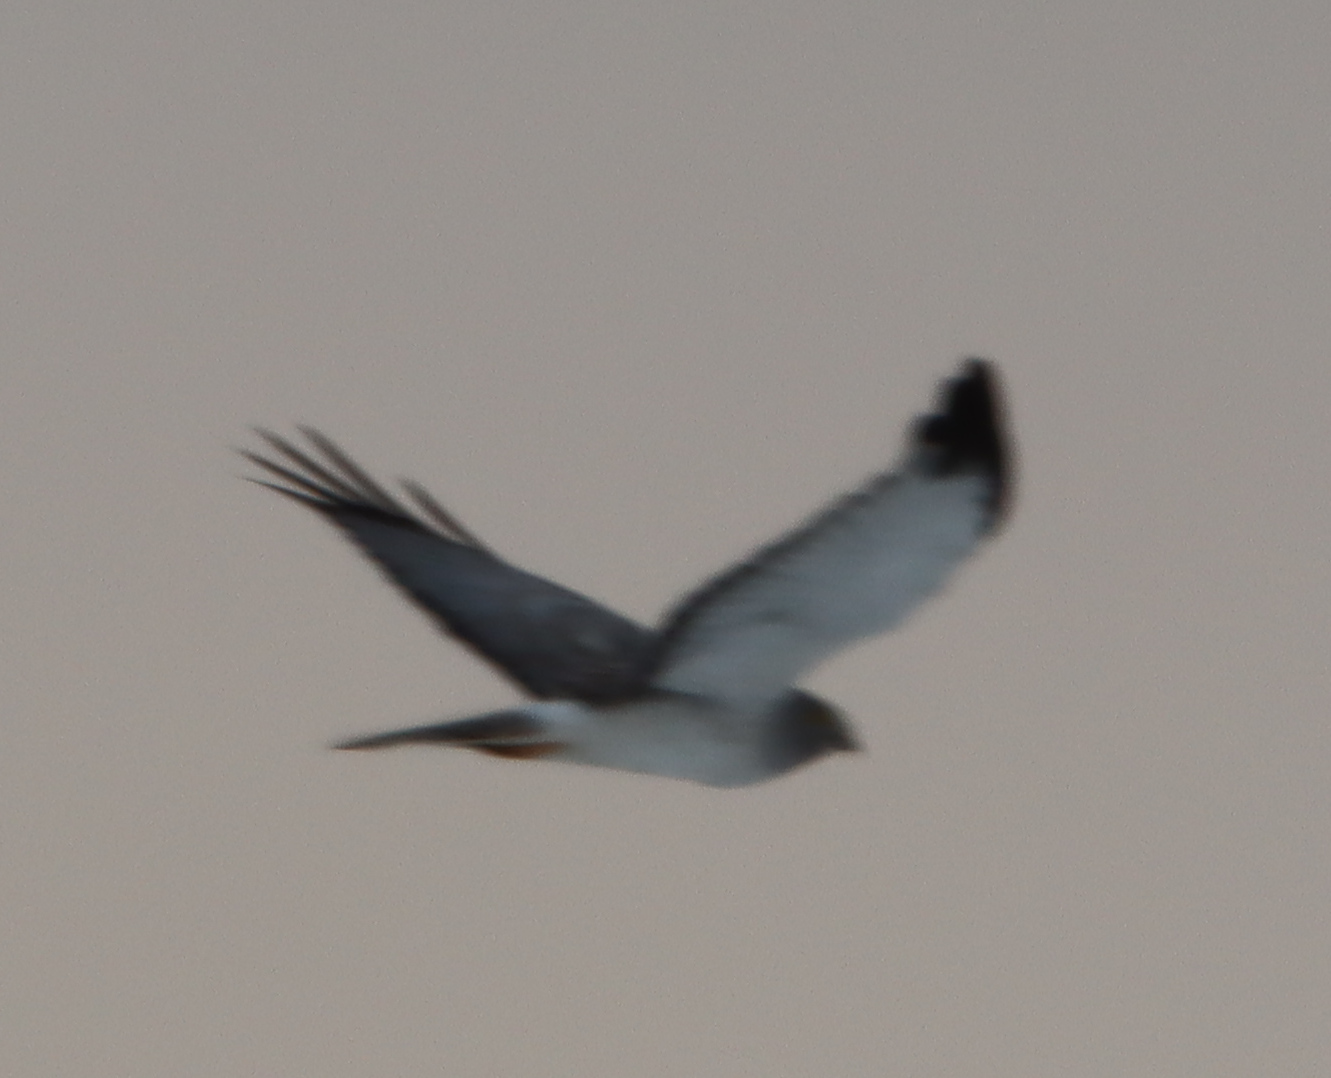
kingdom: Animalia
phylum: Chordata
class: Aves
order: Accipitriformes
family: Accipitridae
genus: Circus
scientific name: Circus cyaneus
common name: Hen harrier
